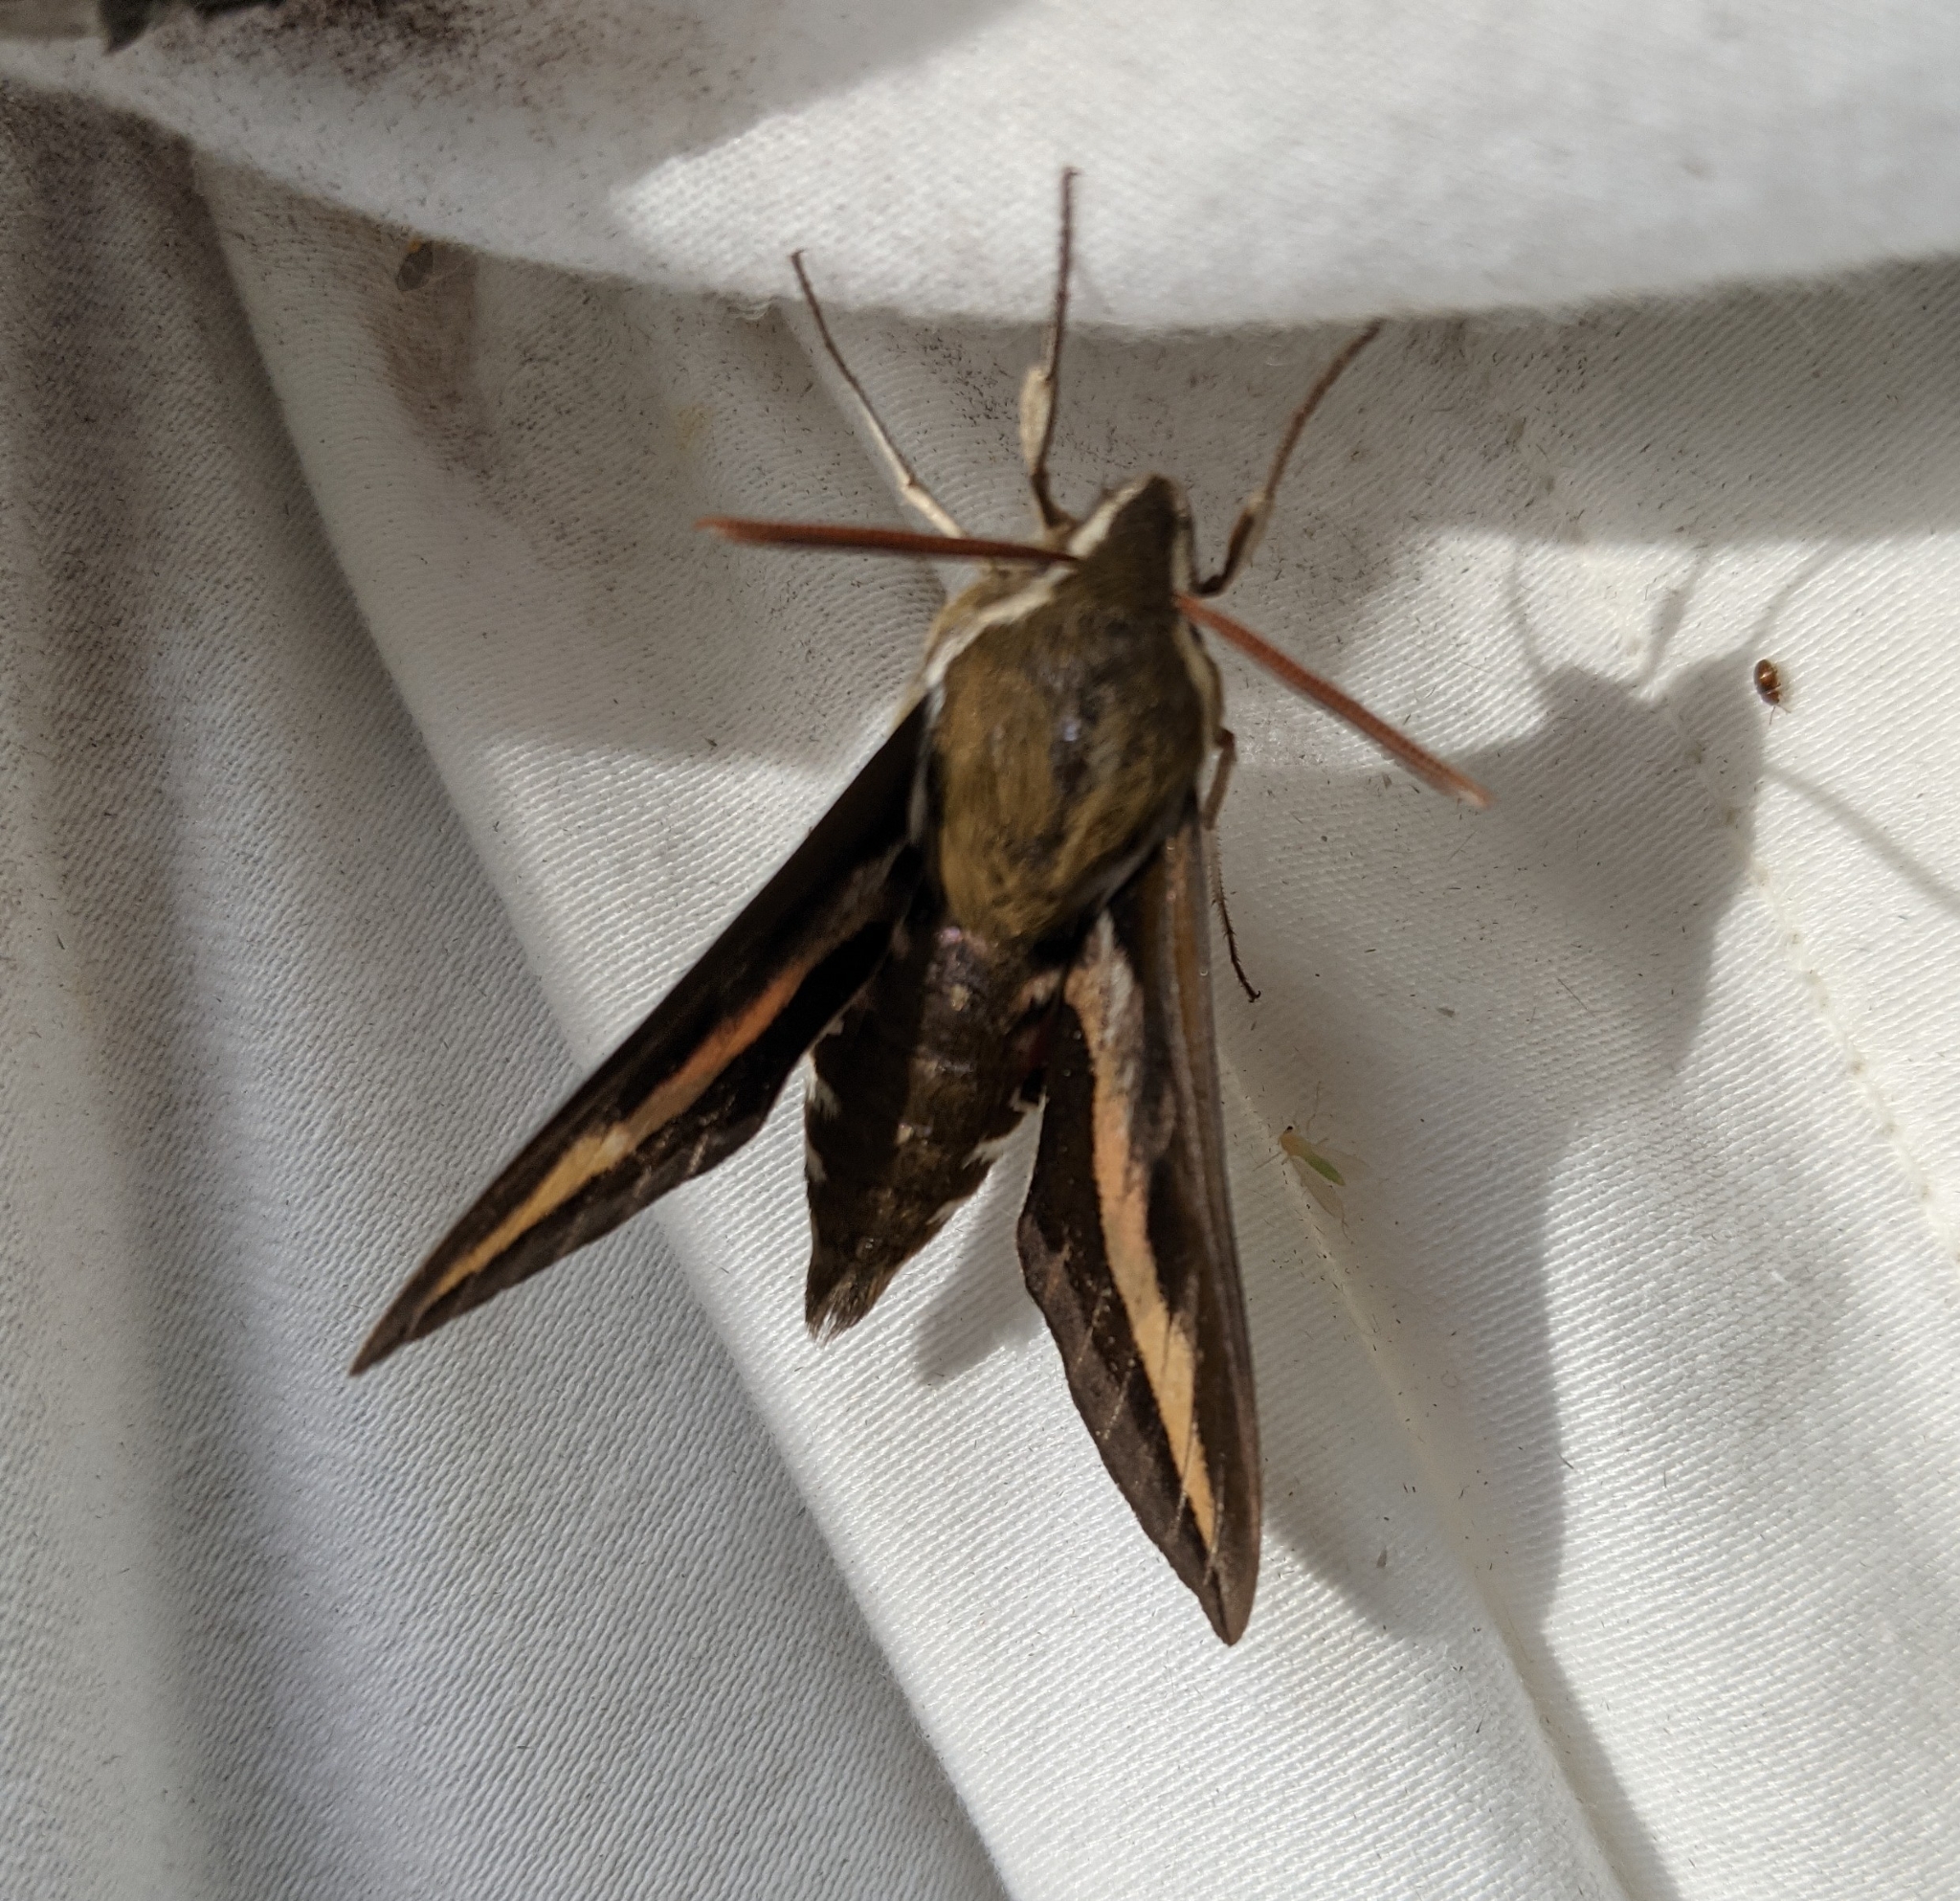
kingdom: Animalia
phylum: Arthropoda
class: Insecta
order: Lepidoptera
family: Sphingidae
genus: Hyles
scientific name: Hyles gallii
